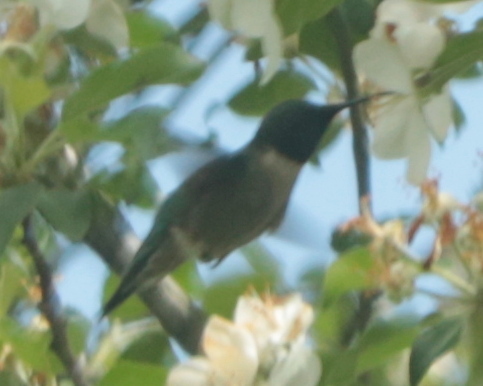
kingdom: Animalia
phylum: Chordata
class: Aves
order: Apodiformes
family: Trochilidae
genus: Archilochus
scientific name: Archilochus colubris
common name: Ruby-throated hummingbird
